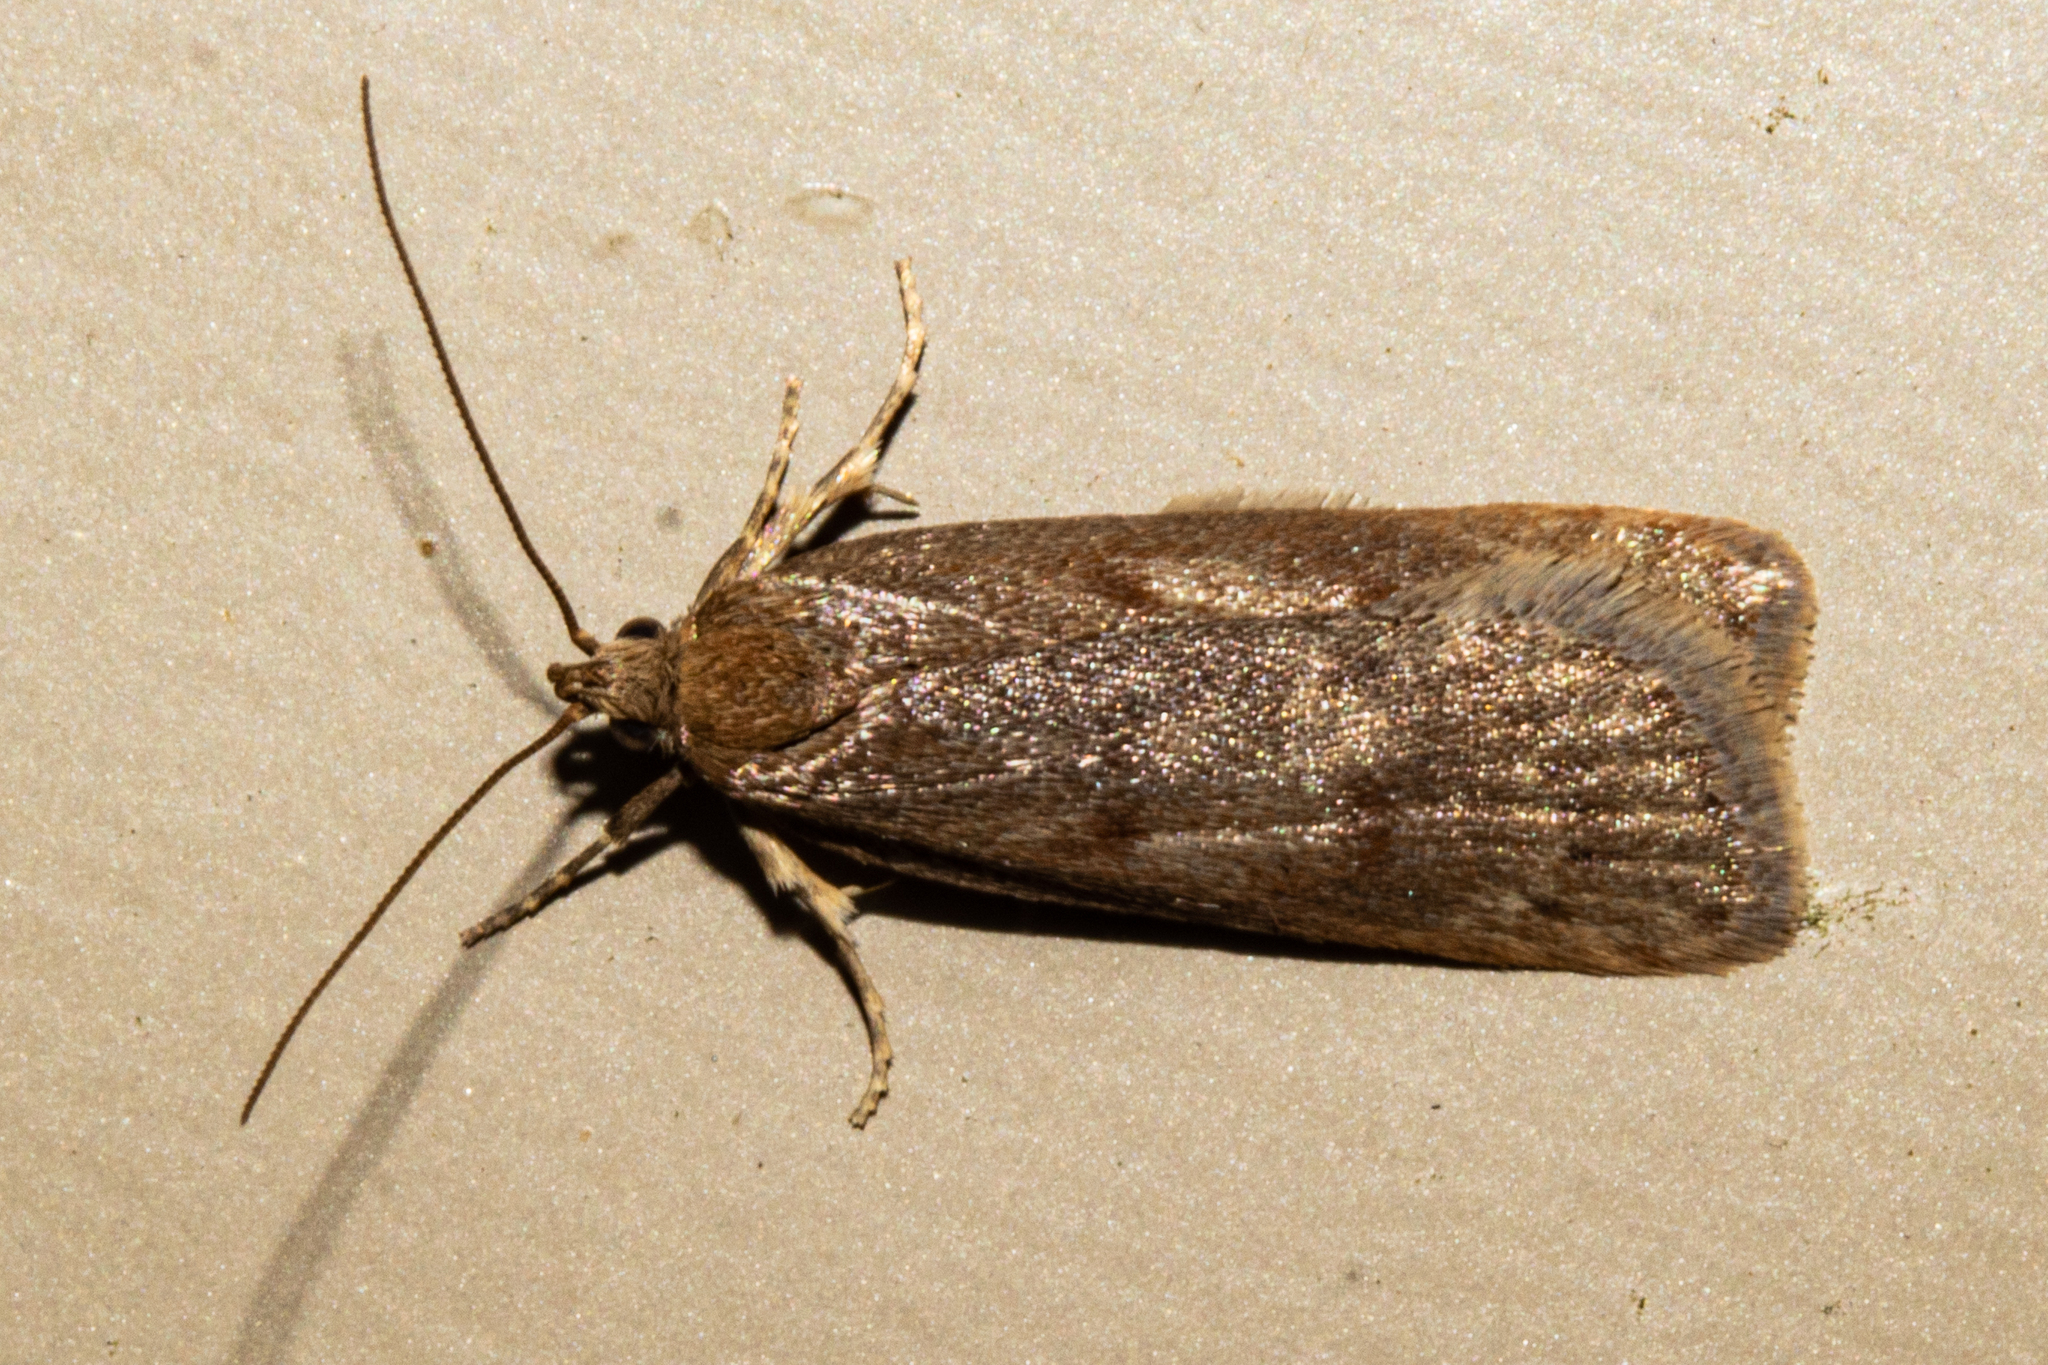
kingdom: Animalia
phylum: Arthropoda
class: Insecta
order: Lepidoptera
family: Depressariidae
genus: Phaeosaces
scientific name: Phaeosaces apocrypta
